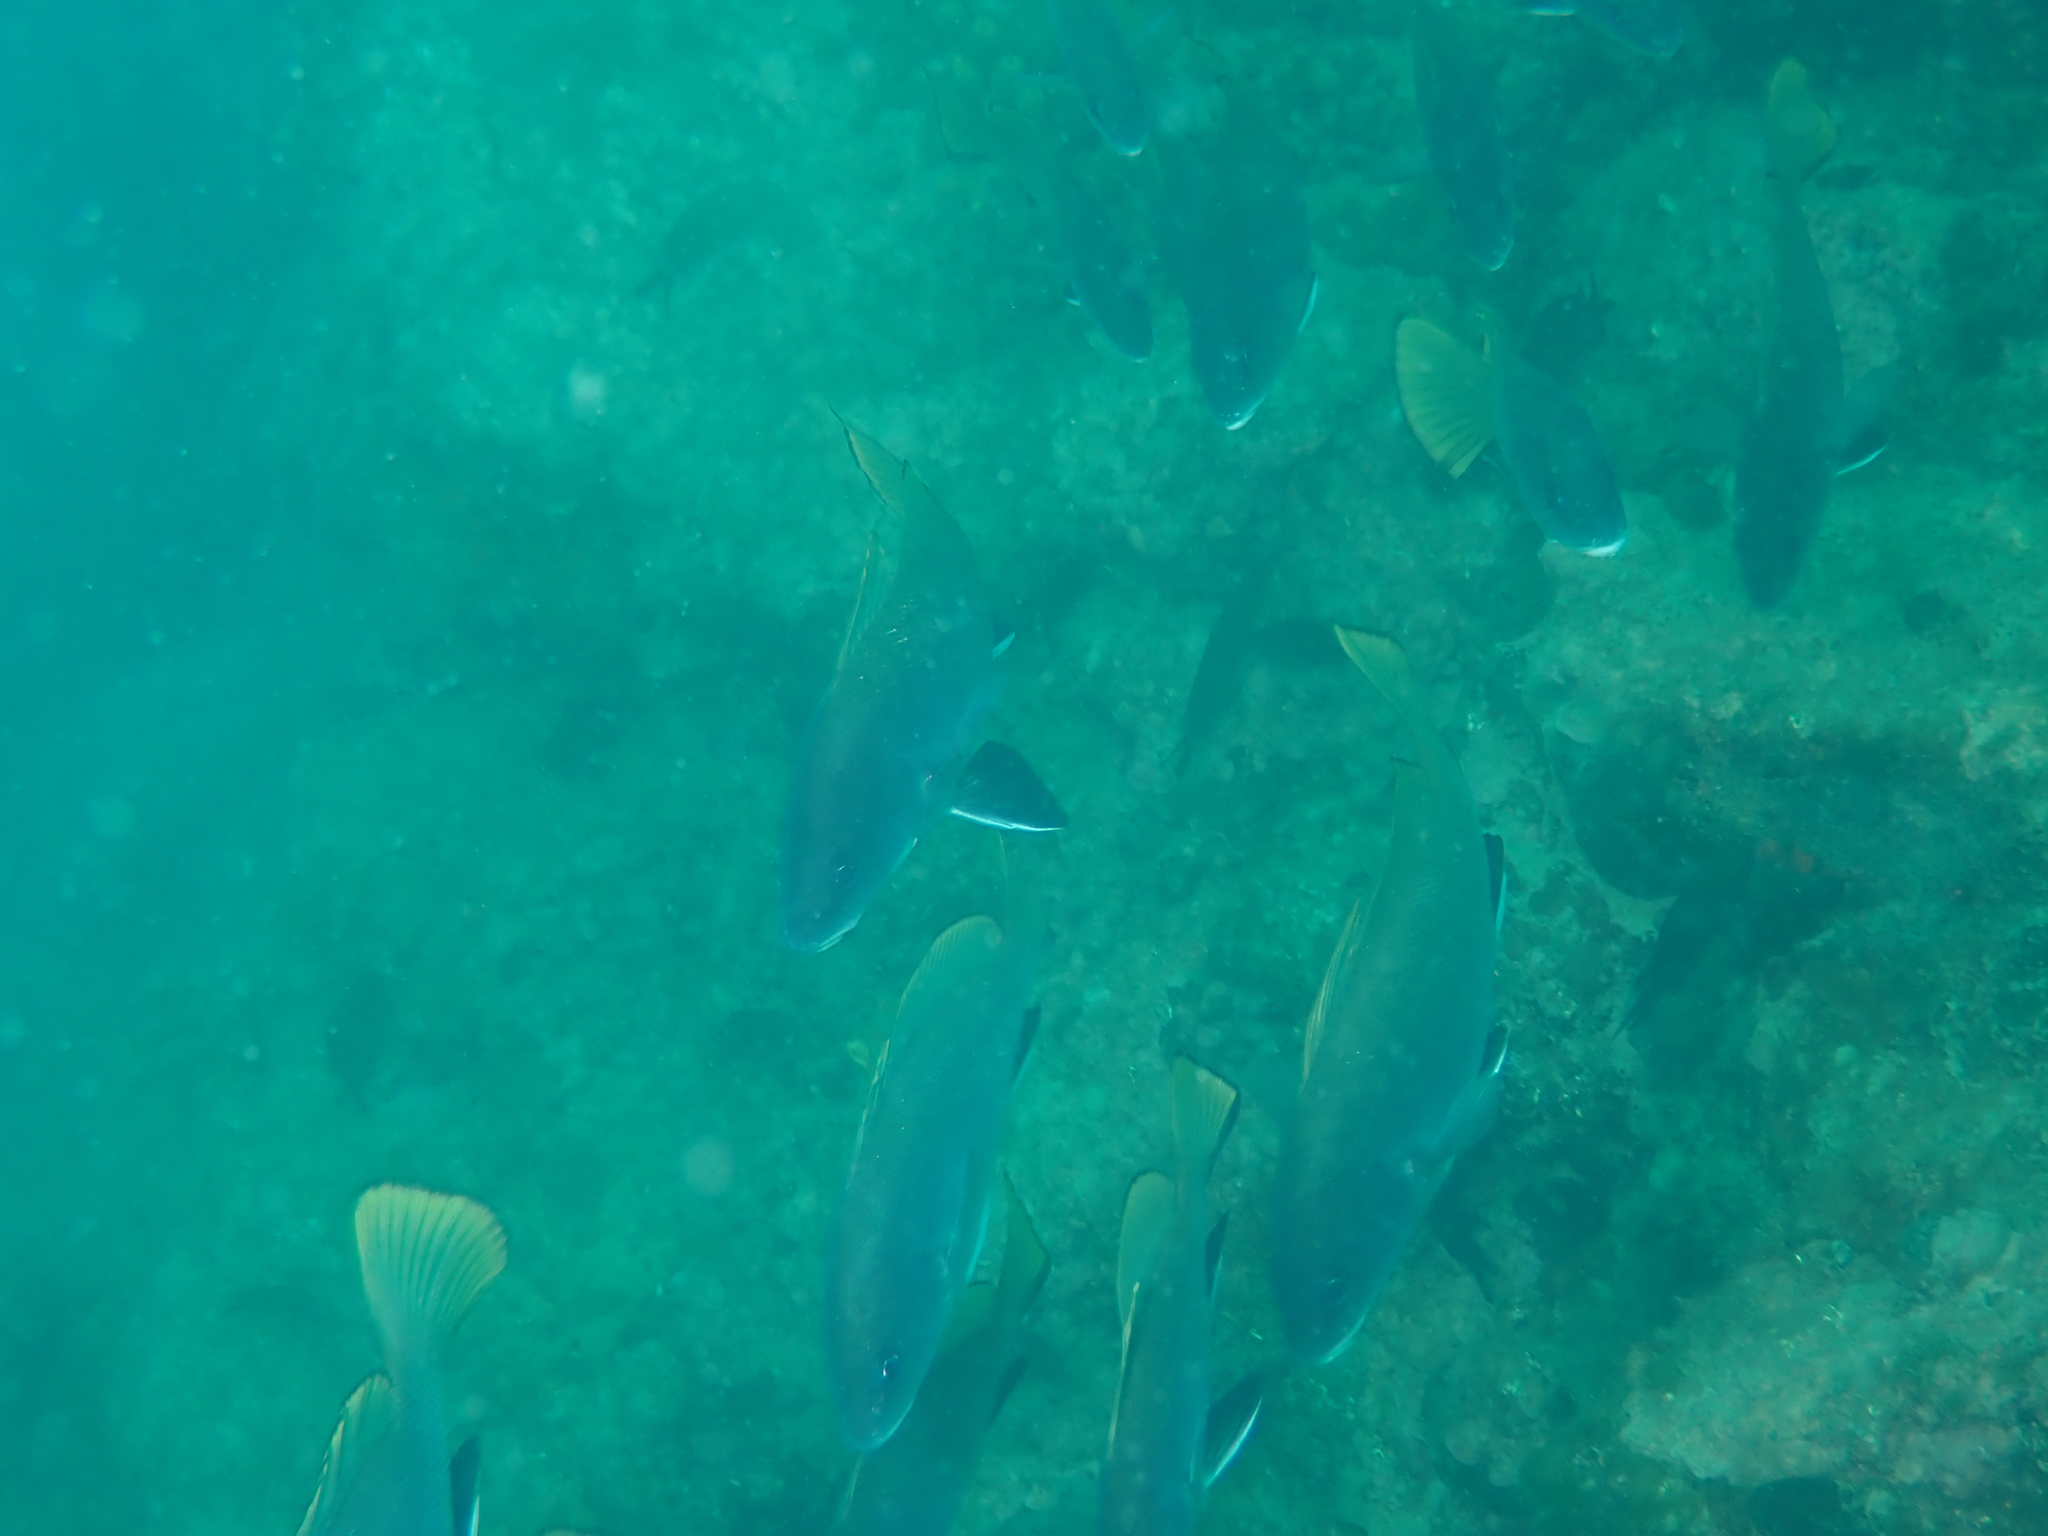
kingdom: Animalia
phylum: Chordata
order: Perciformes
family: Sciaenidae
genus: Sciaena
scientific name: Sciaena umbra
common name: Brown meagre
